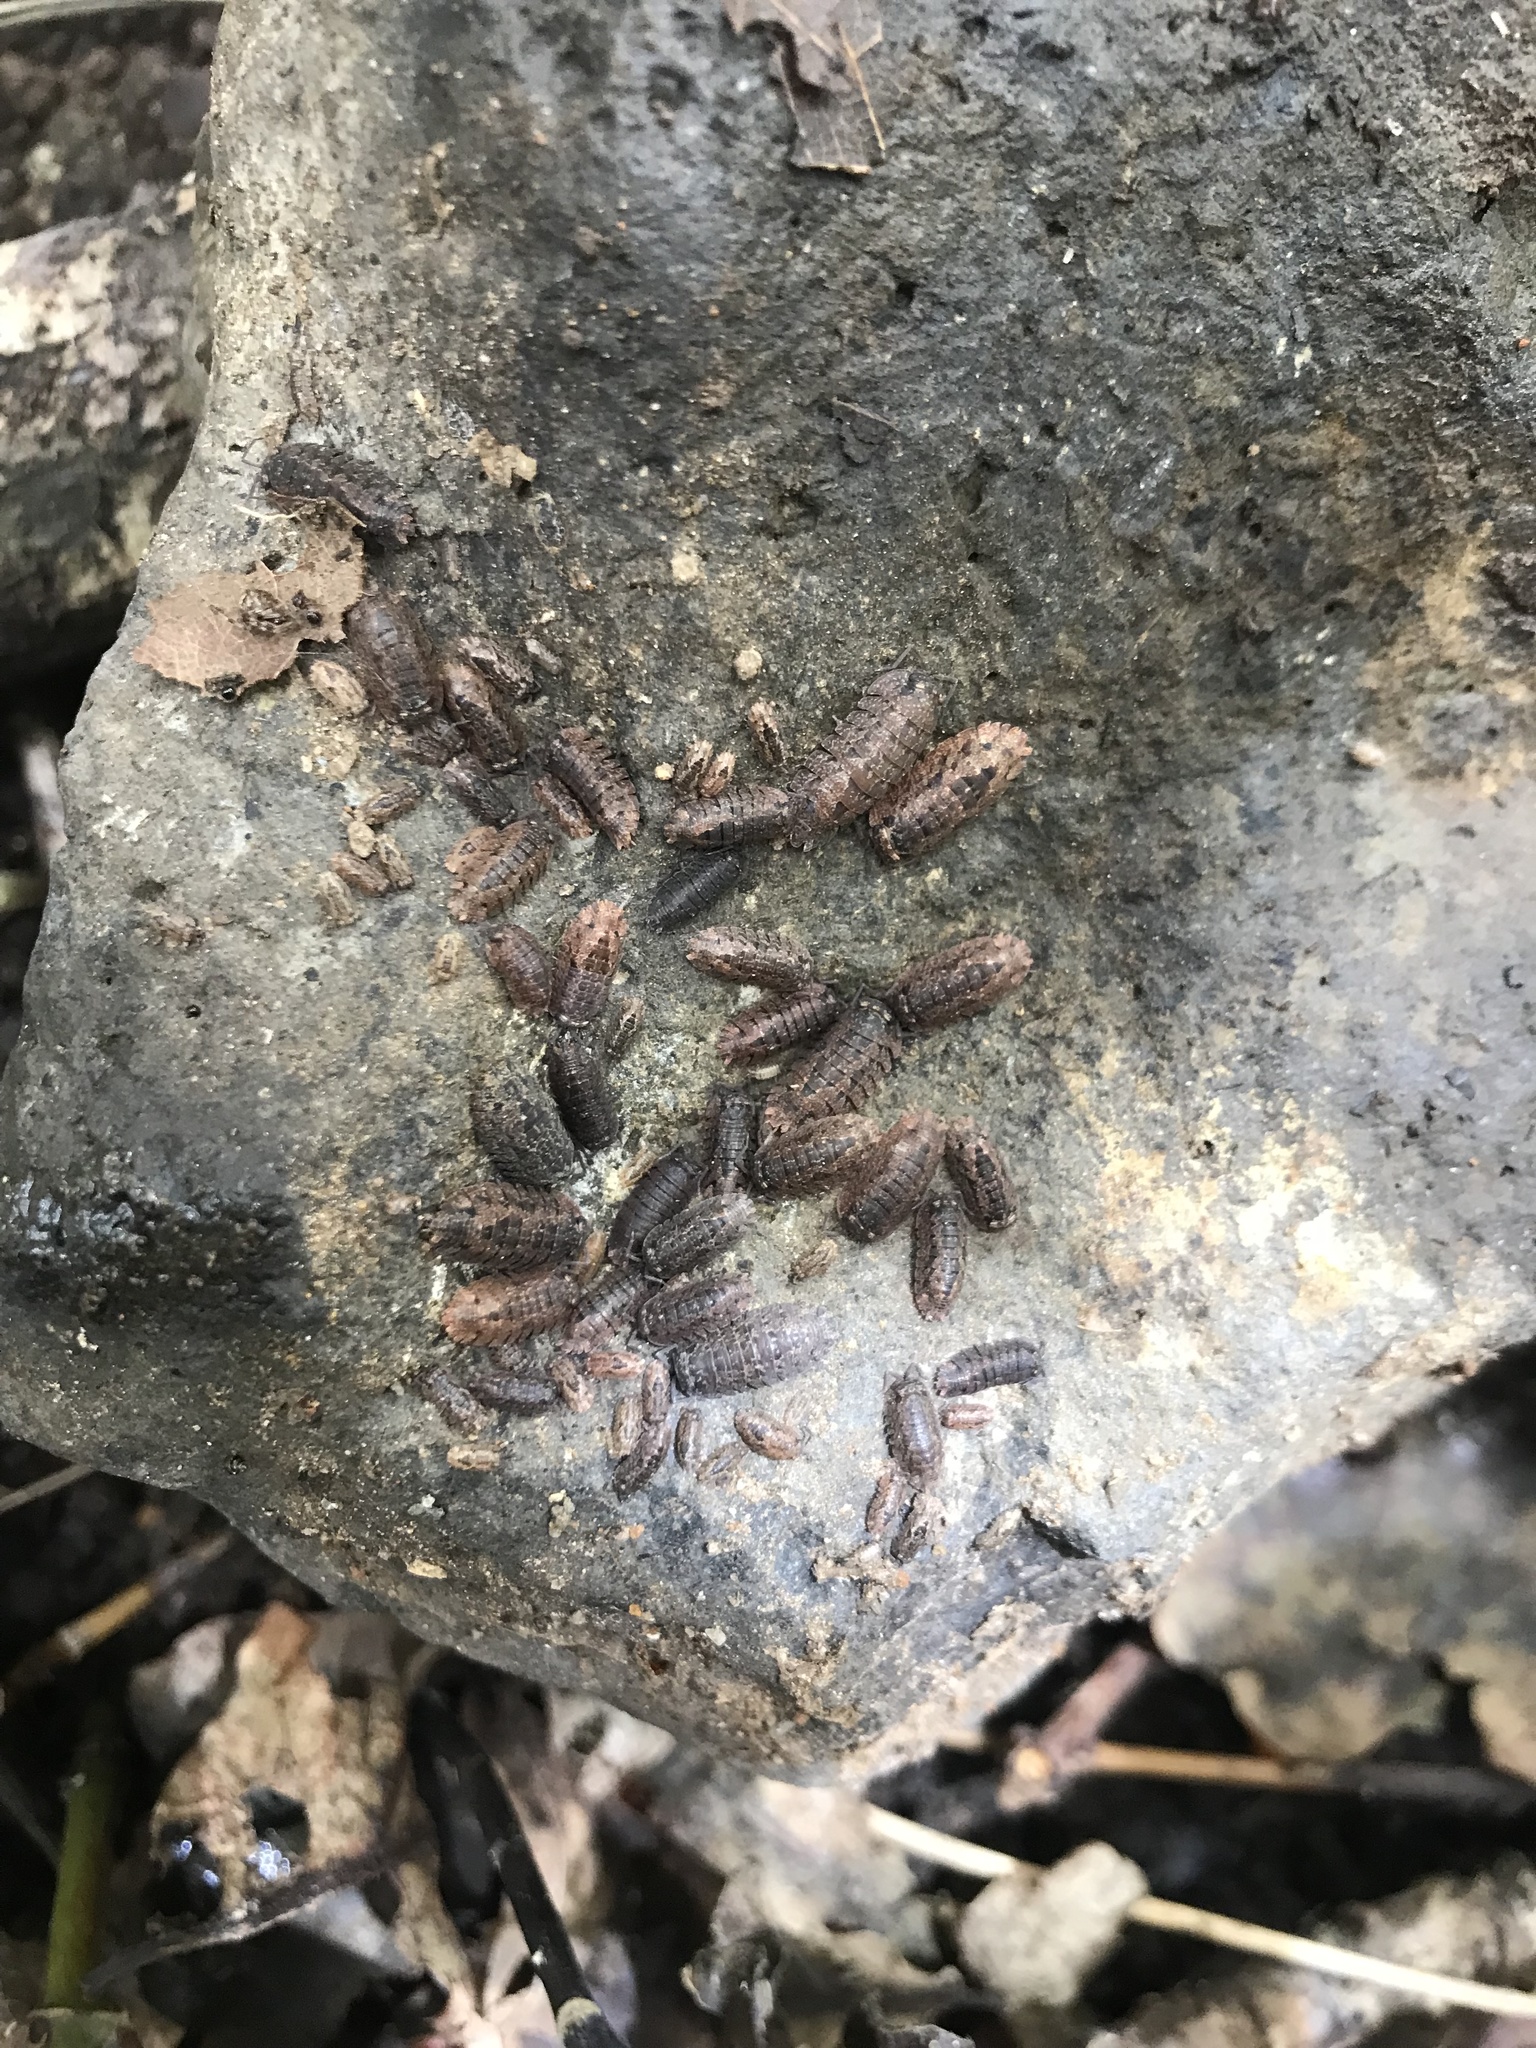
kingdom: Animalia
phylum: Arthropoda
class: Malacostraca
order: Isopoda
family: Armadillidae
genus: Cubaris
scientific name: Cubaris tarangensis
